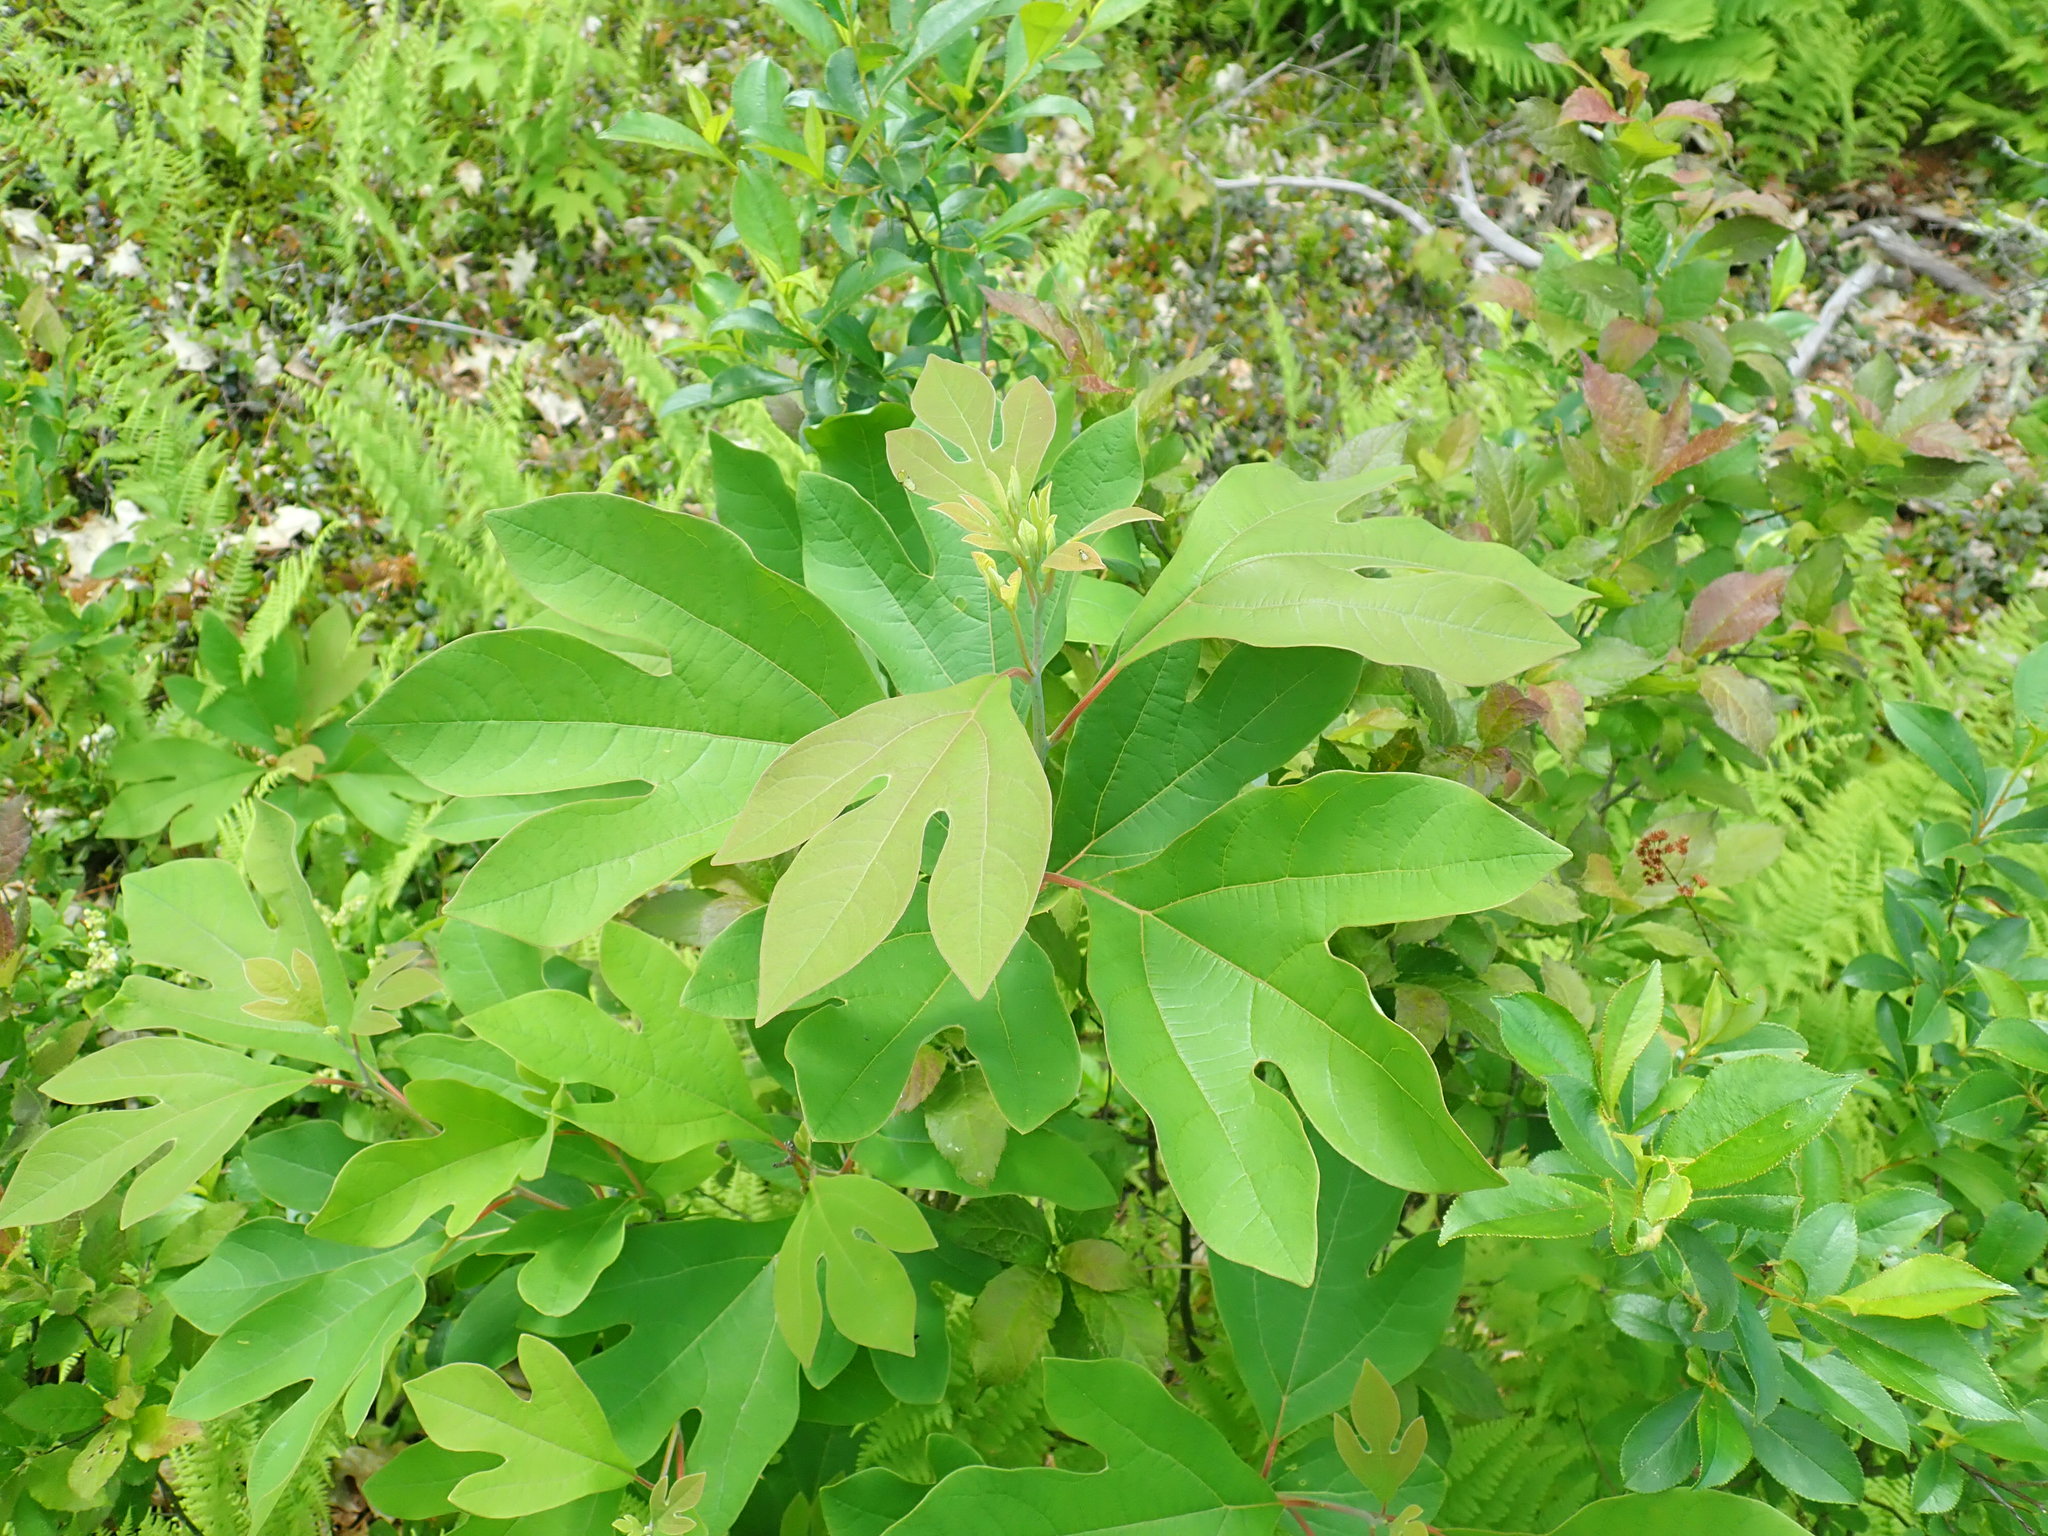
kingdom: Plantae
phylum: Tracheophyta
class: Magnoliopsida
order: Laurales
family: Lauraceae
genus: Sassafras
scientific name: Sassafras albidum
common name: Sassafras
